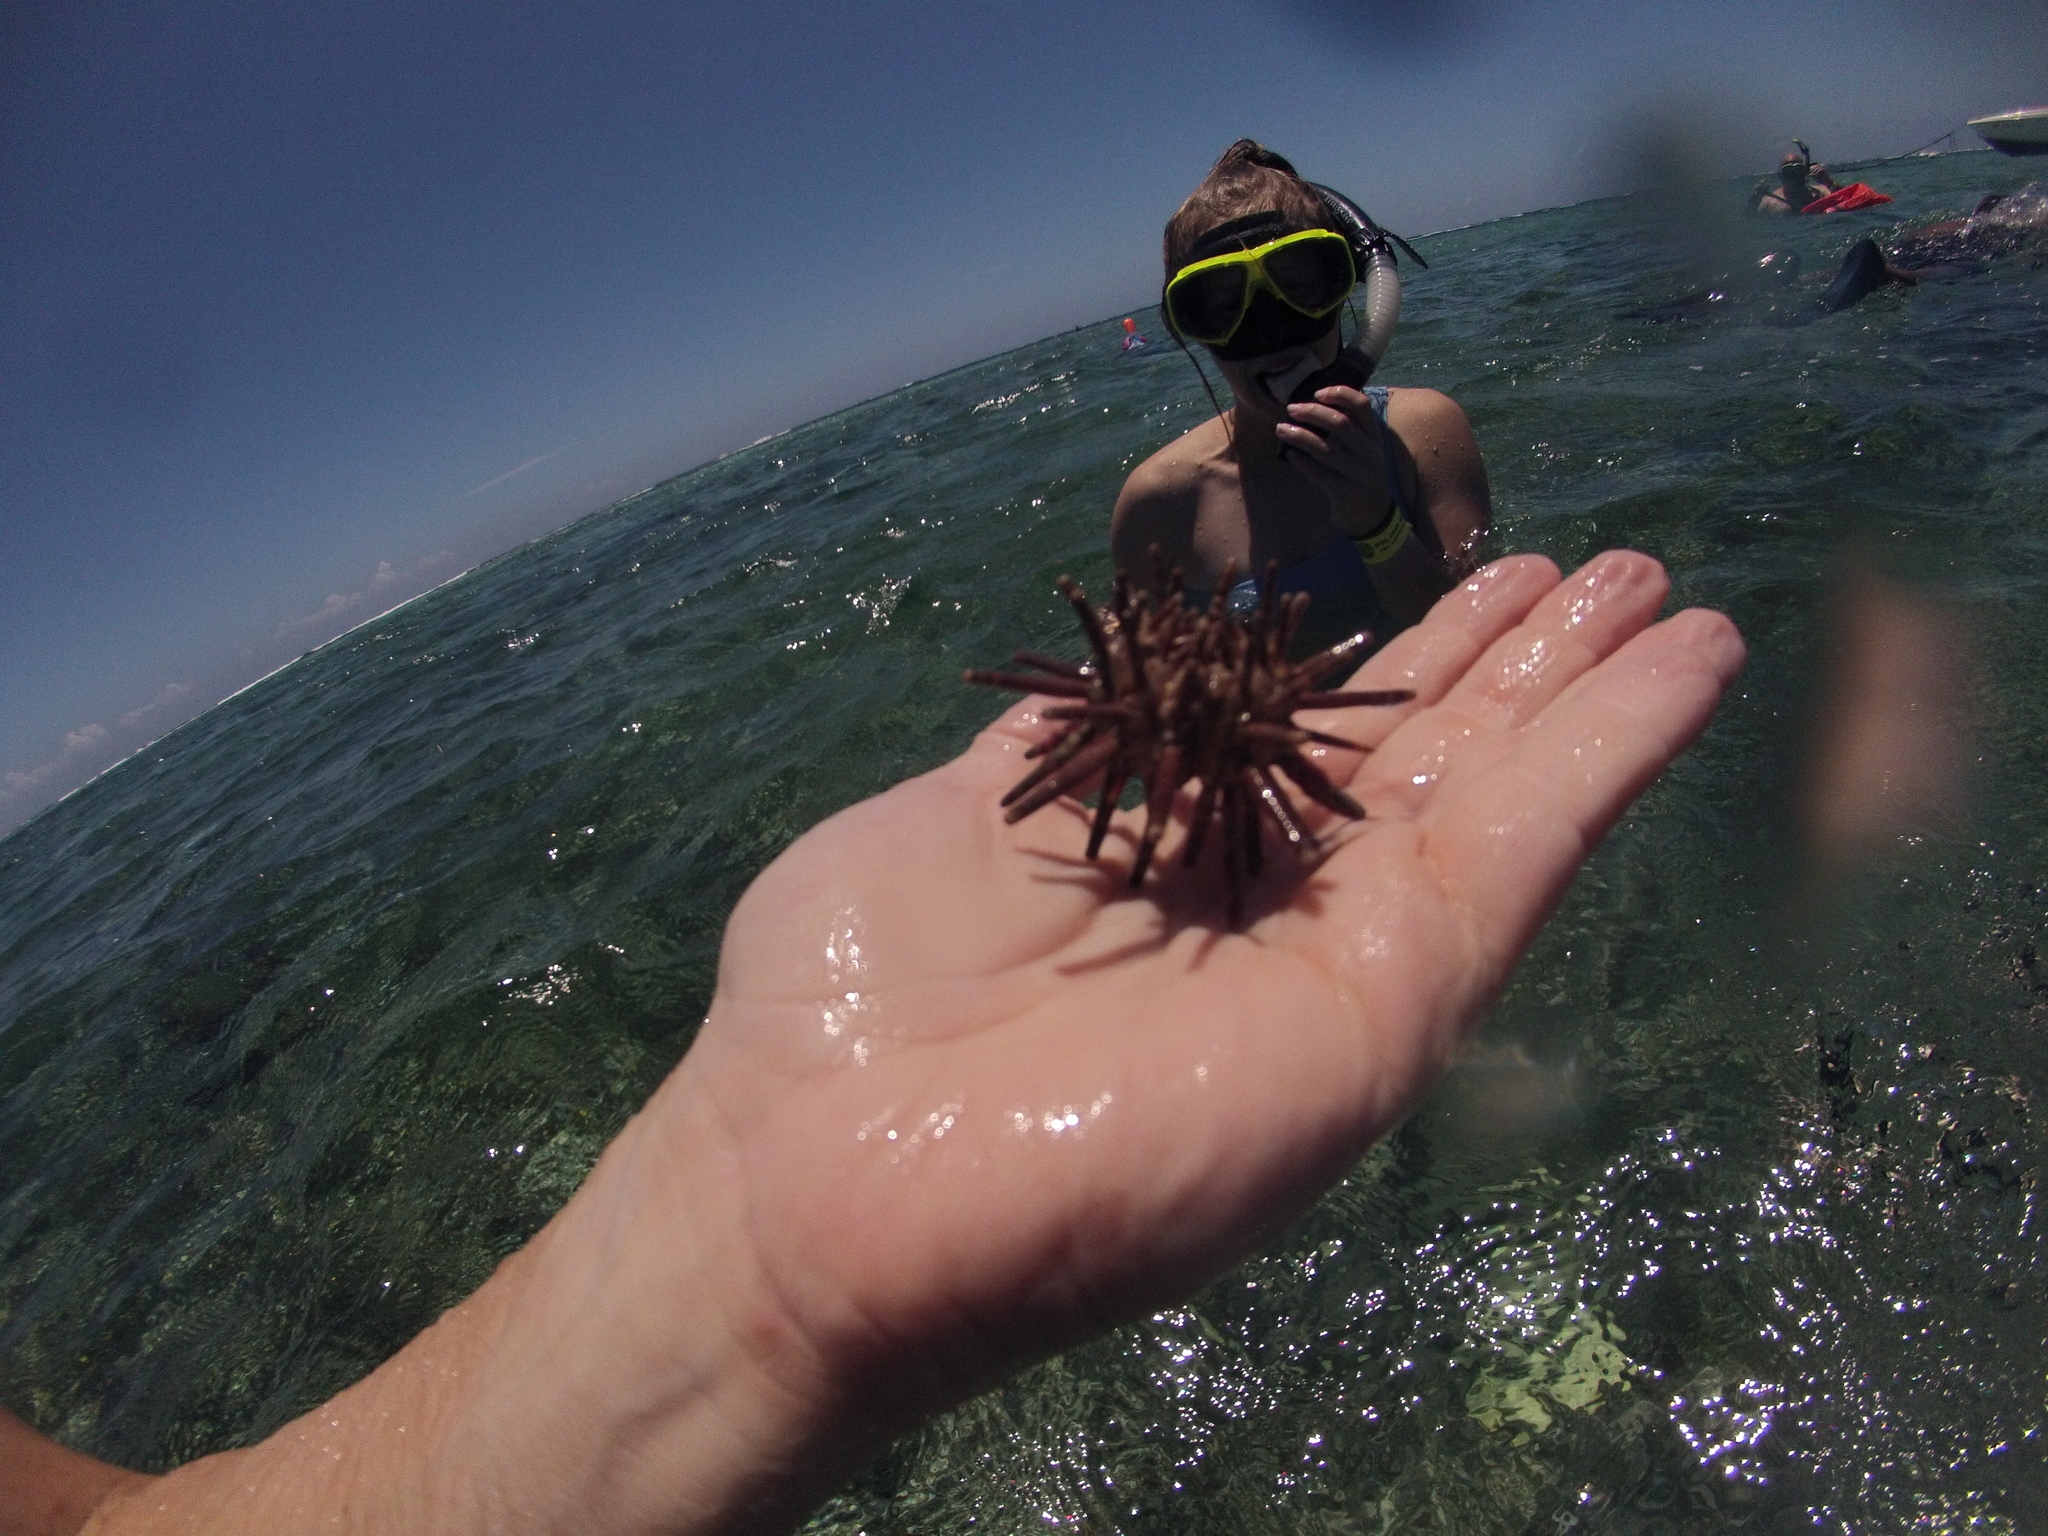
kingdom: Animalia
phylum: Echinodermata
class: Echinoidea
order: Cidaroida
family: Cidaridae
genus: Eucidaris
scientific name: Eucidaris tribuloides
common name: Slate pencil urchin
